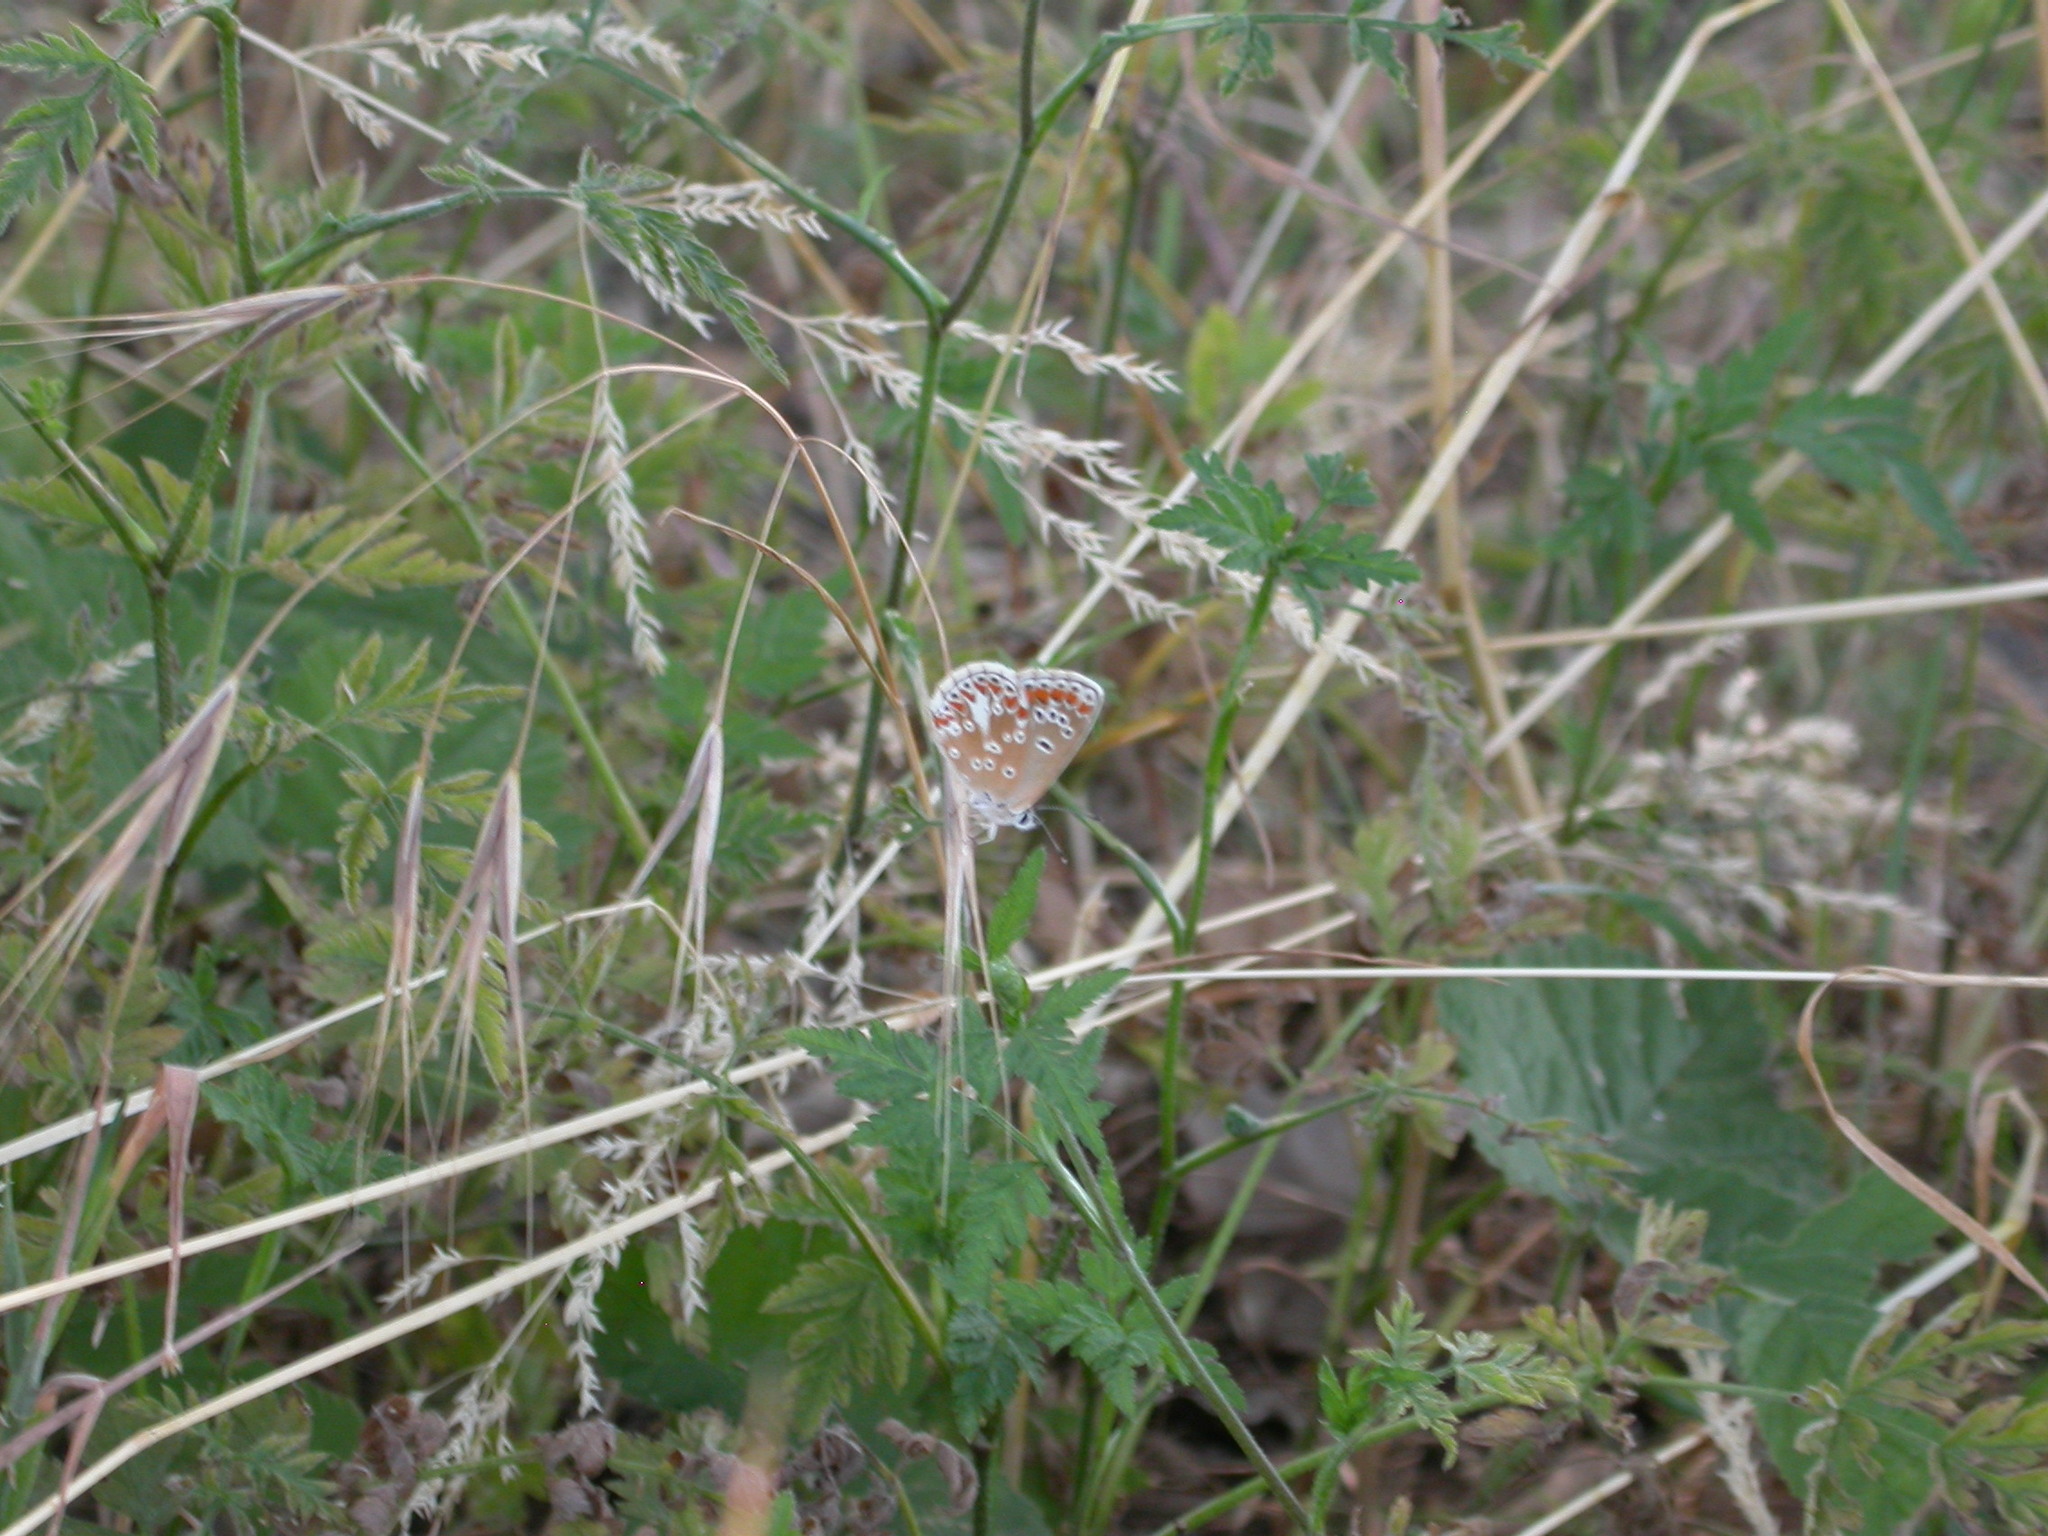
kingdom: Animalia
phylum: Arthropoda
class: Insecta
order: Lepidoptera
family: Lycaenidae
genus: Aricia
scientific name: Aricia agestis
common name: Brown argus
